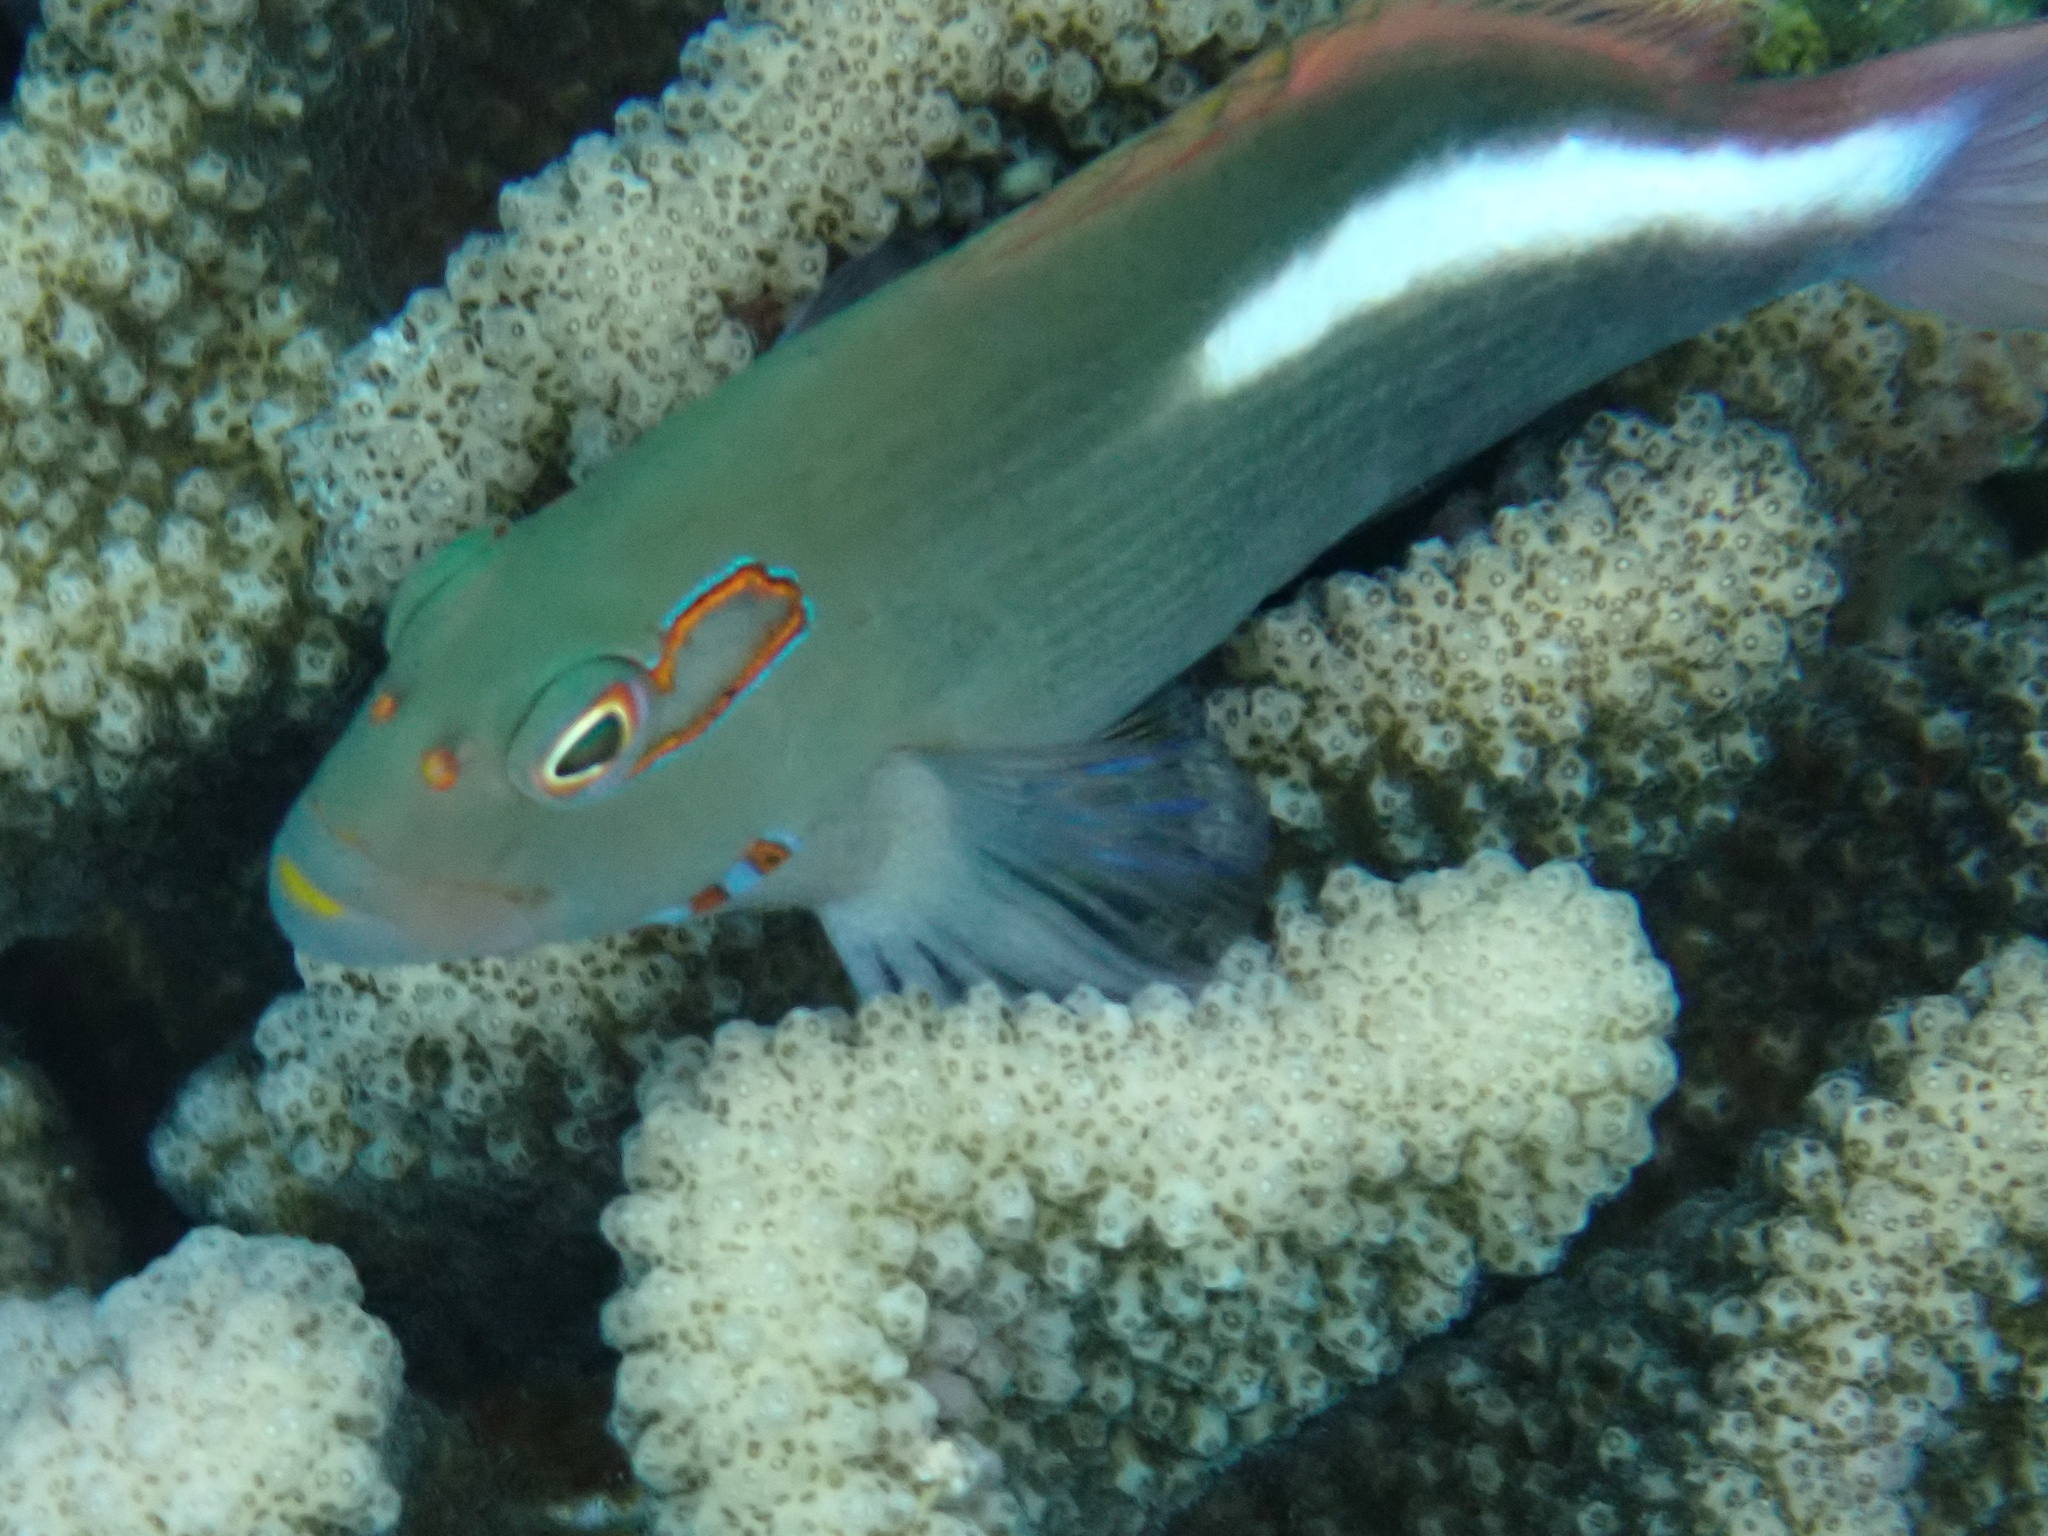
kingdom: Animalia
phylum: Chordata
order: Perciformes
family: Cirrhitidae
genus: Paracirrhites
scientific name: Paracirrhites arcatus
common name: Arc-eye hawkfish
